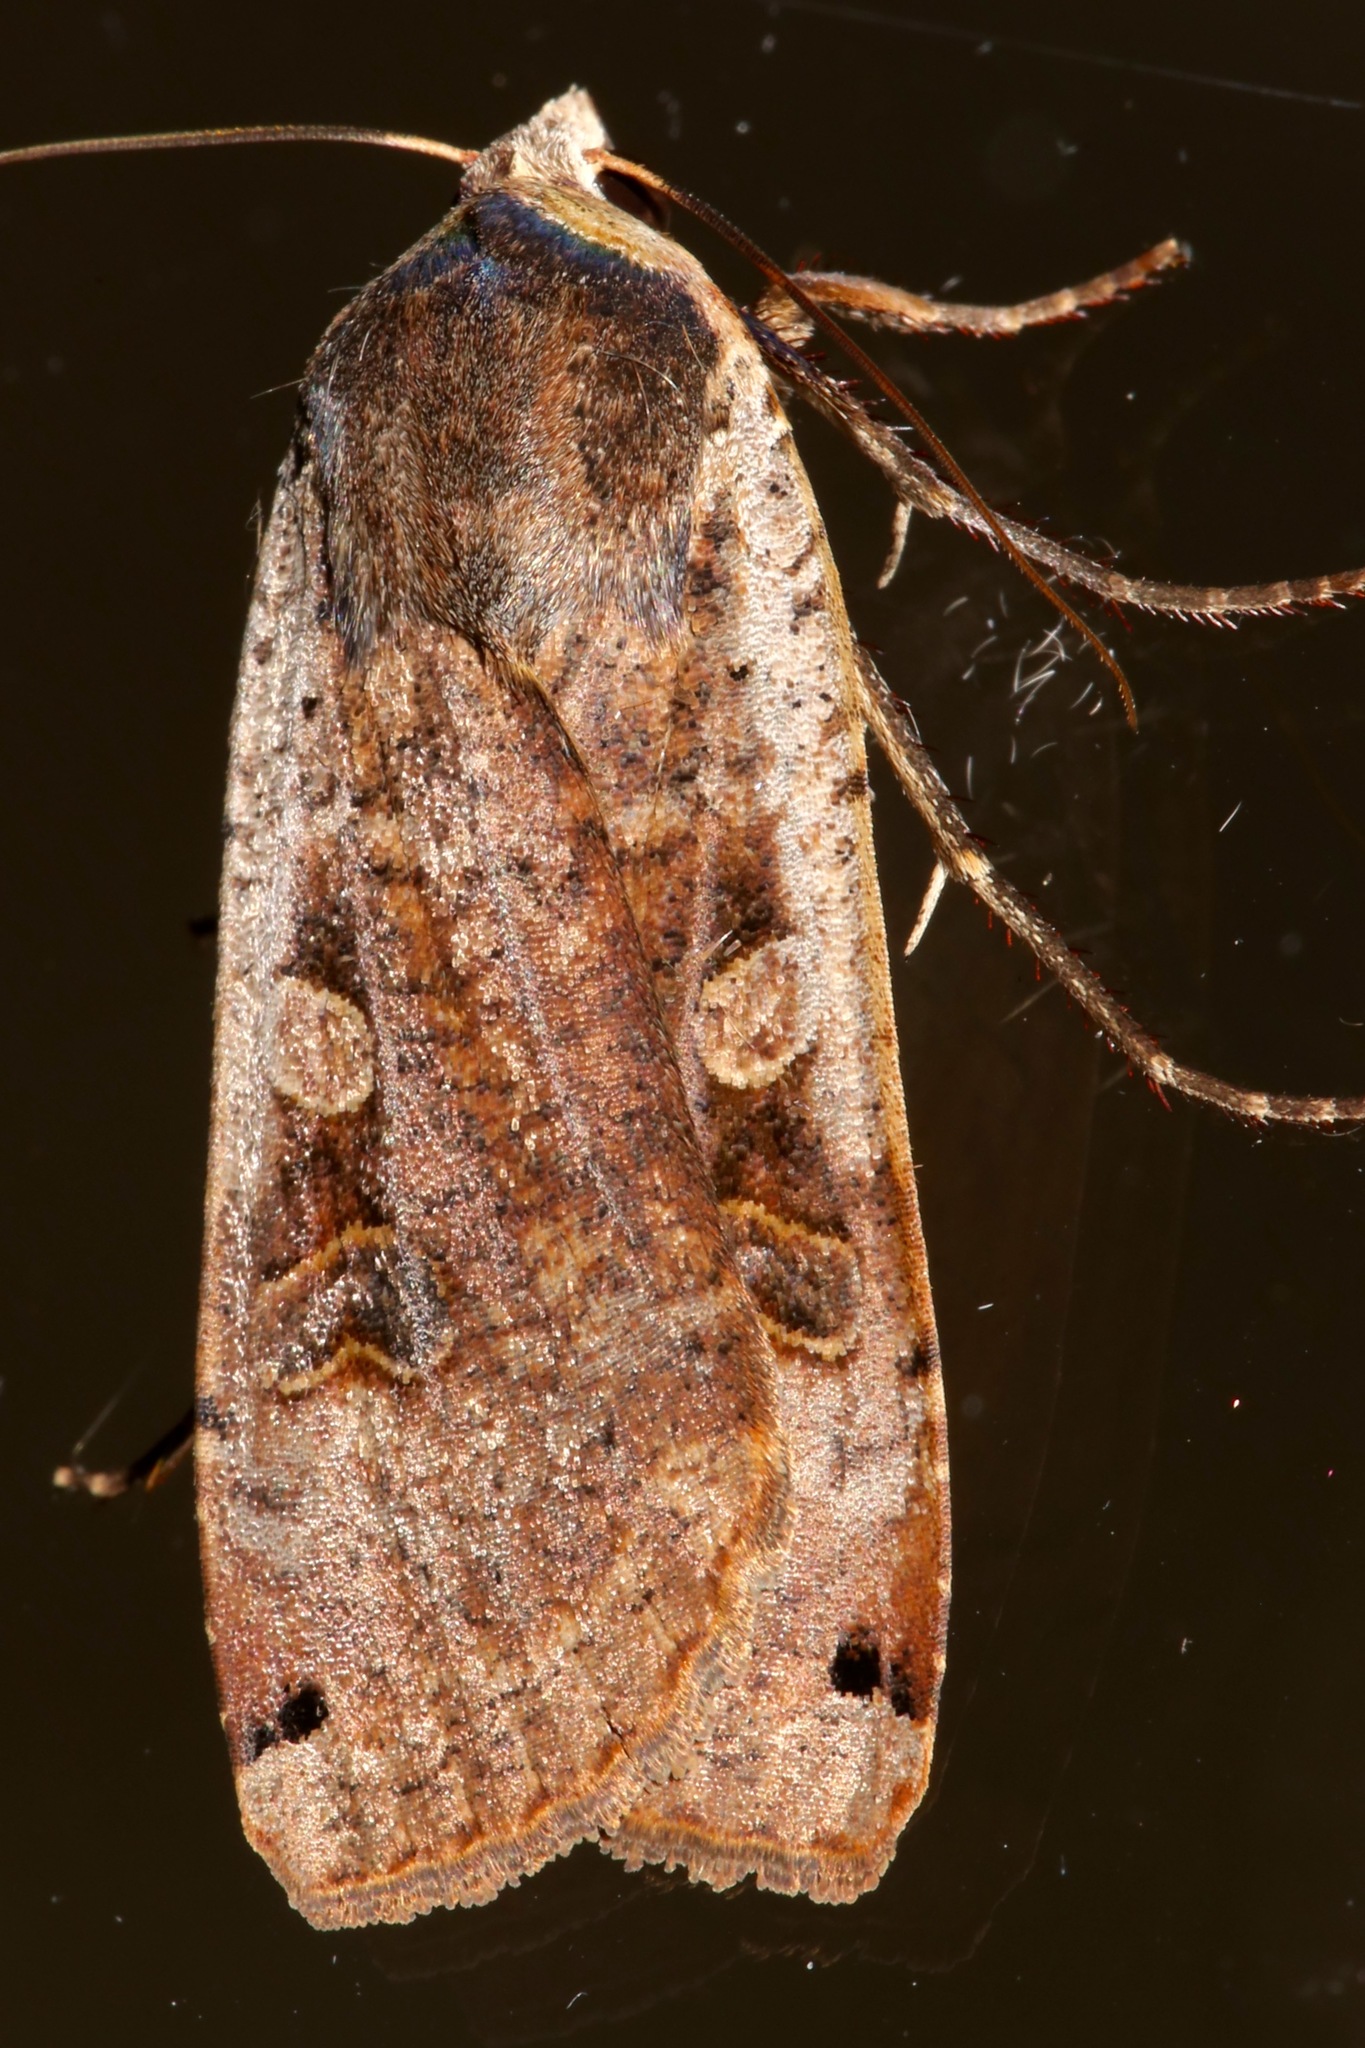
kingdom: Animalia
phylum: Arthropoda
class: Insecta
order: Lepidoptera
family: Noctuidae
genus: Noctua
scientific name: Noctua pronuba
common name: Large yellow underwing
